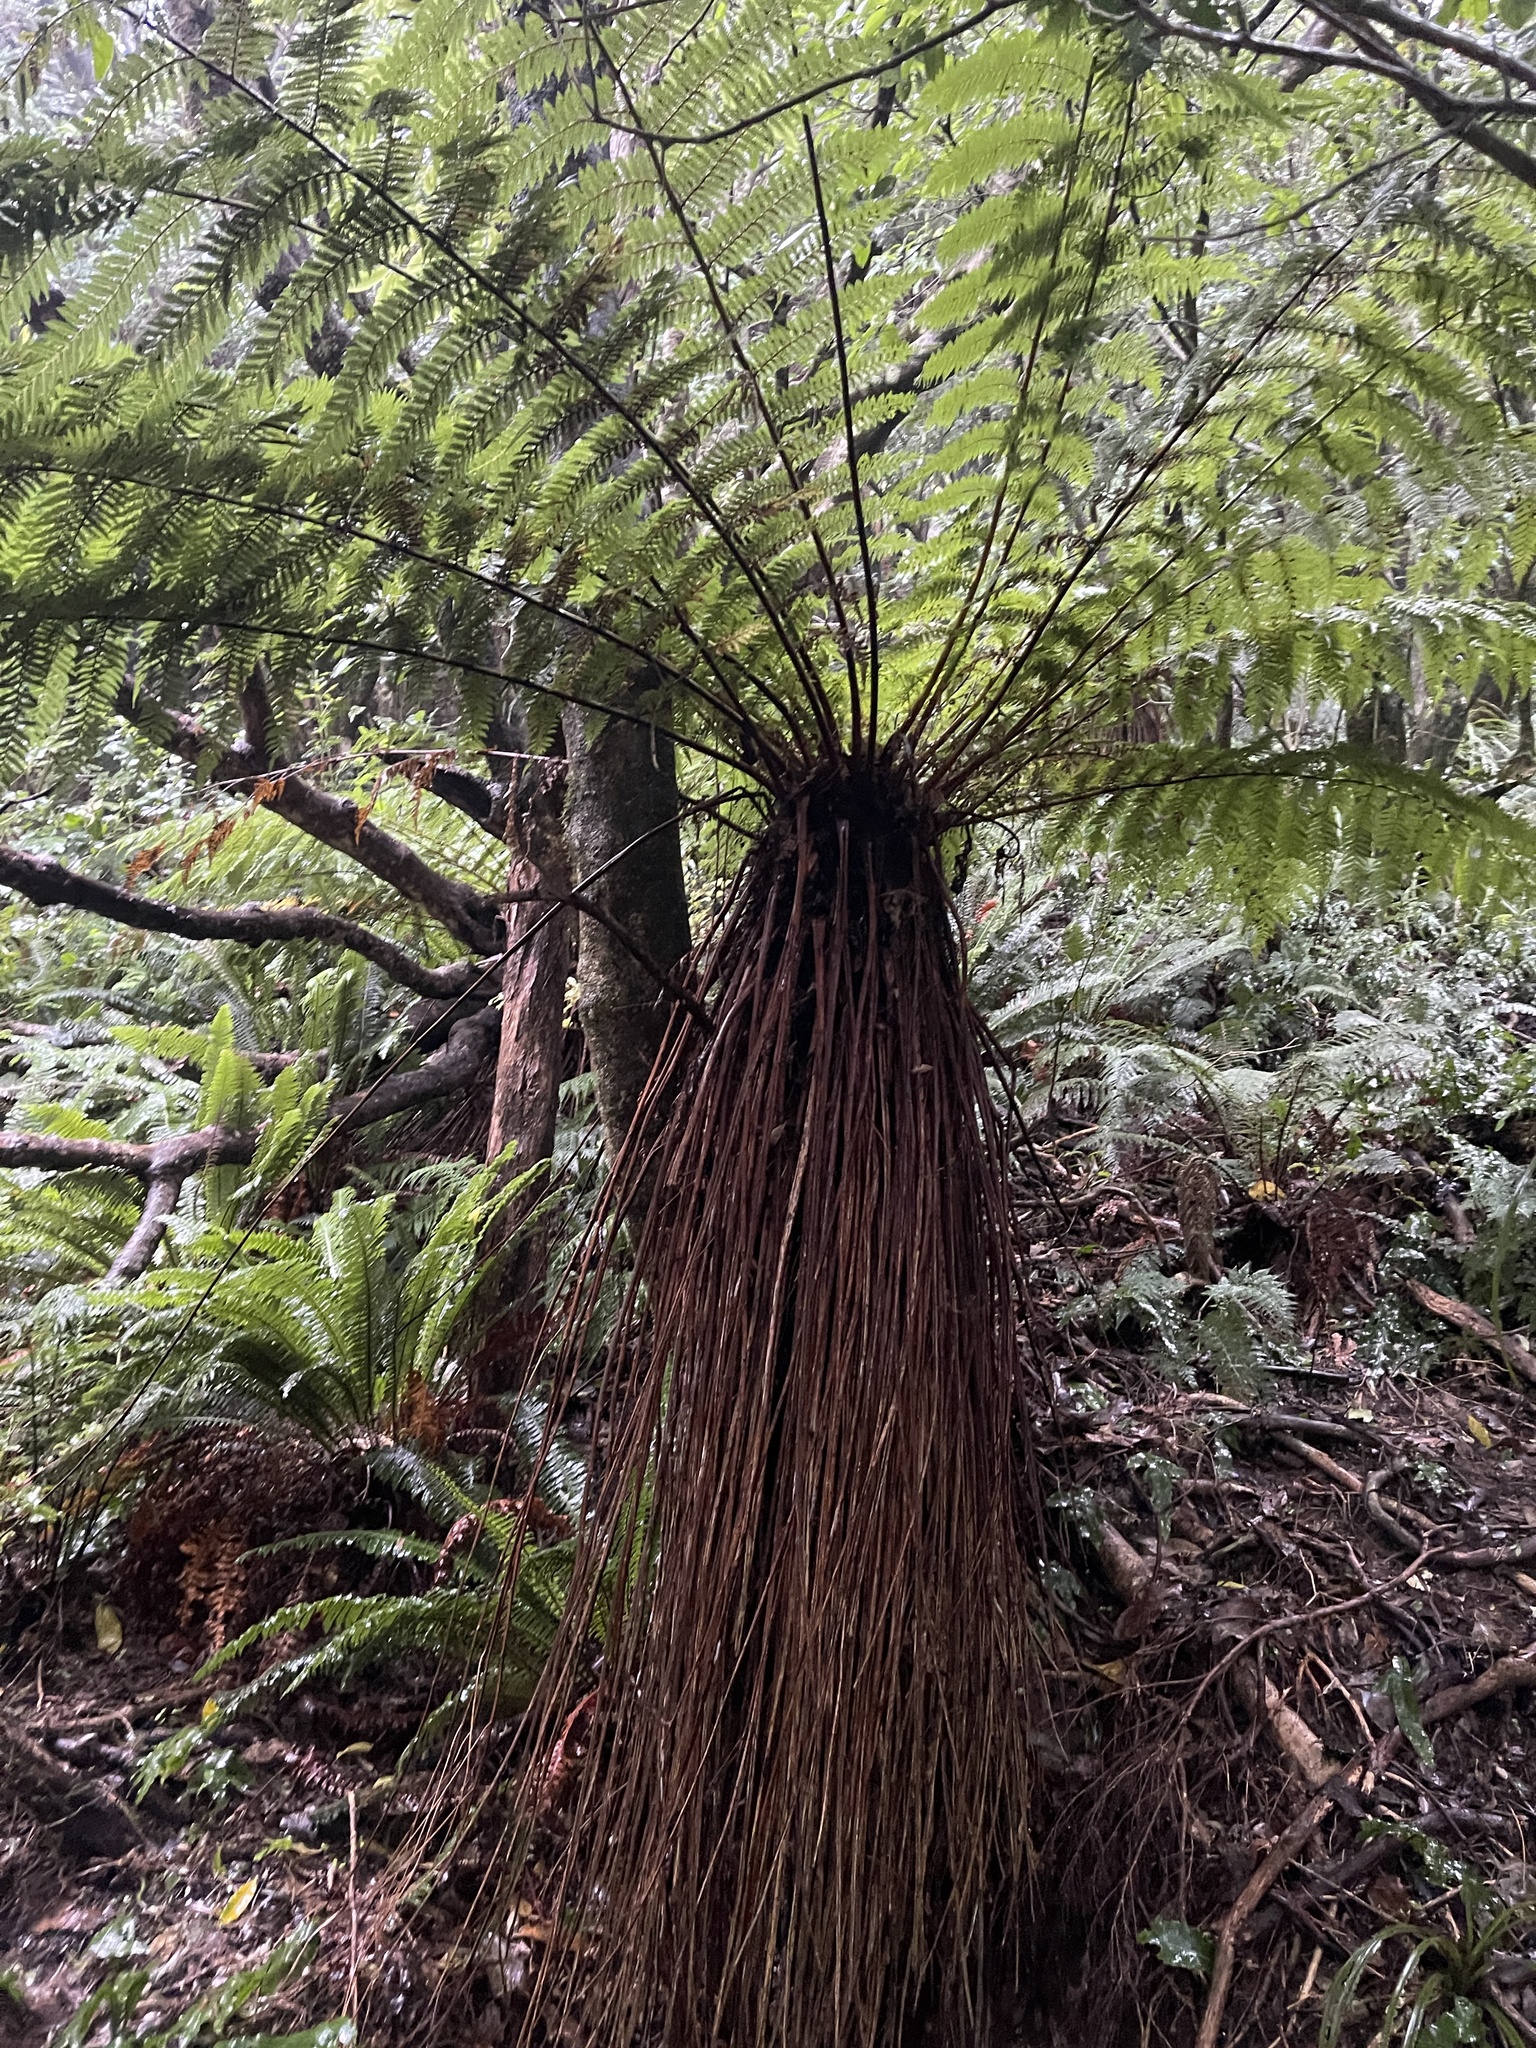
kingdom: Plantae
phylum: Tracheophyta
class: Polypodiopsida
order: Cyatheales
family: Cyatheaceae
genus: Alsophila
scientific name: Alsophila smithii
